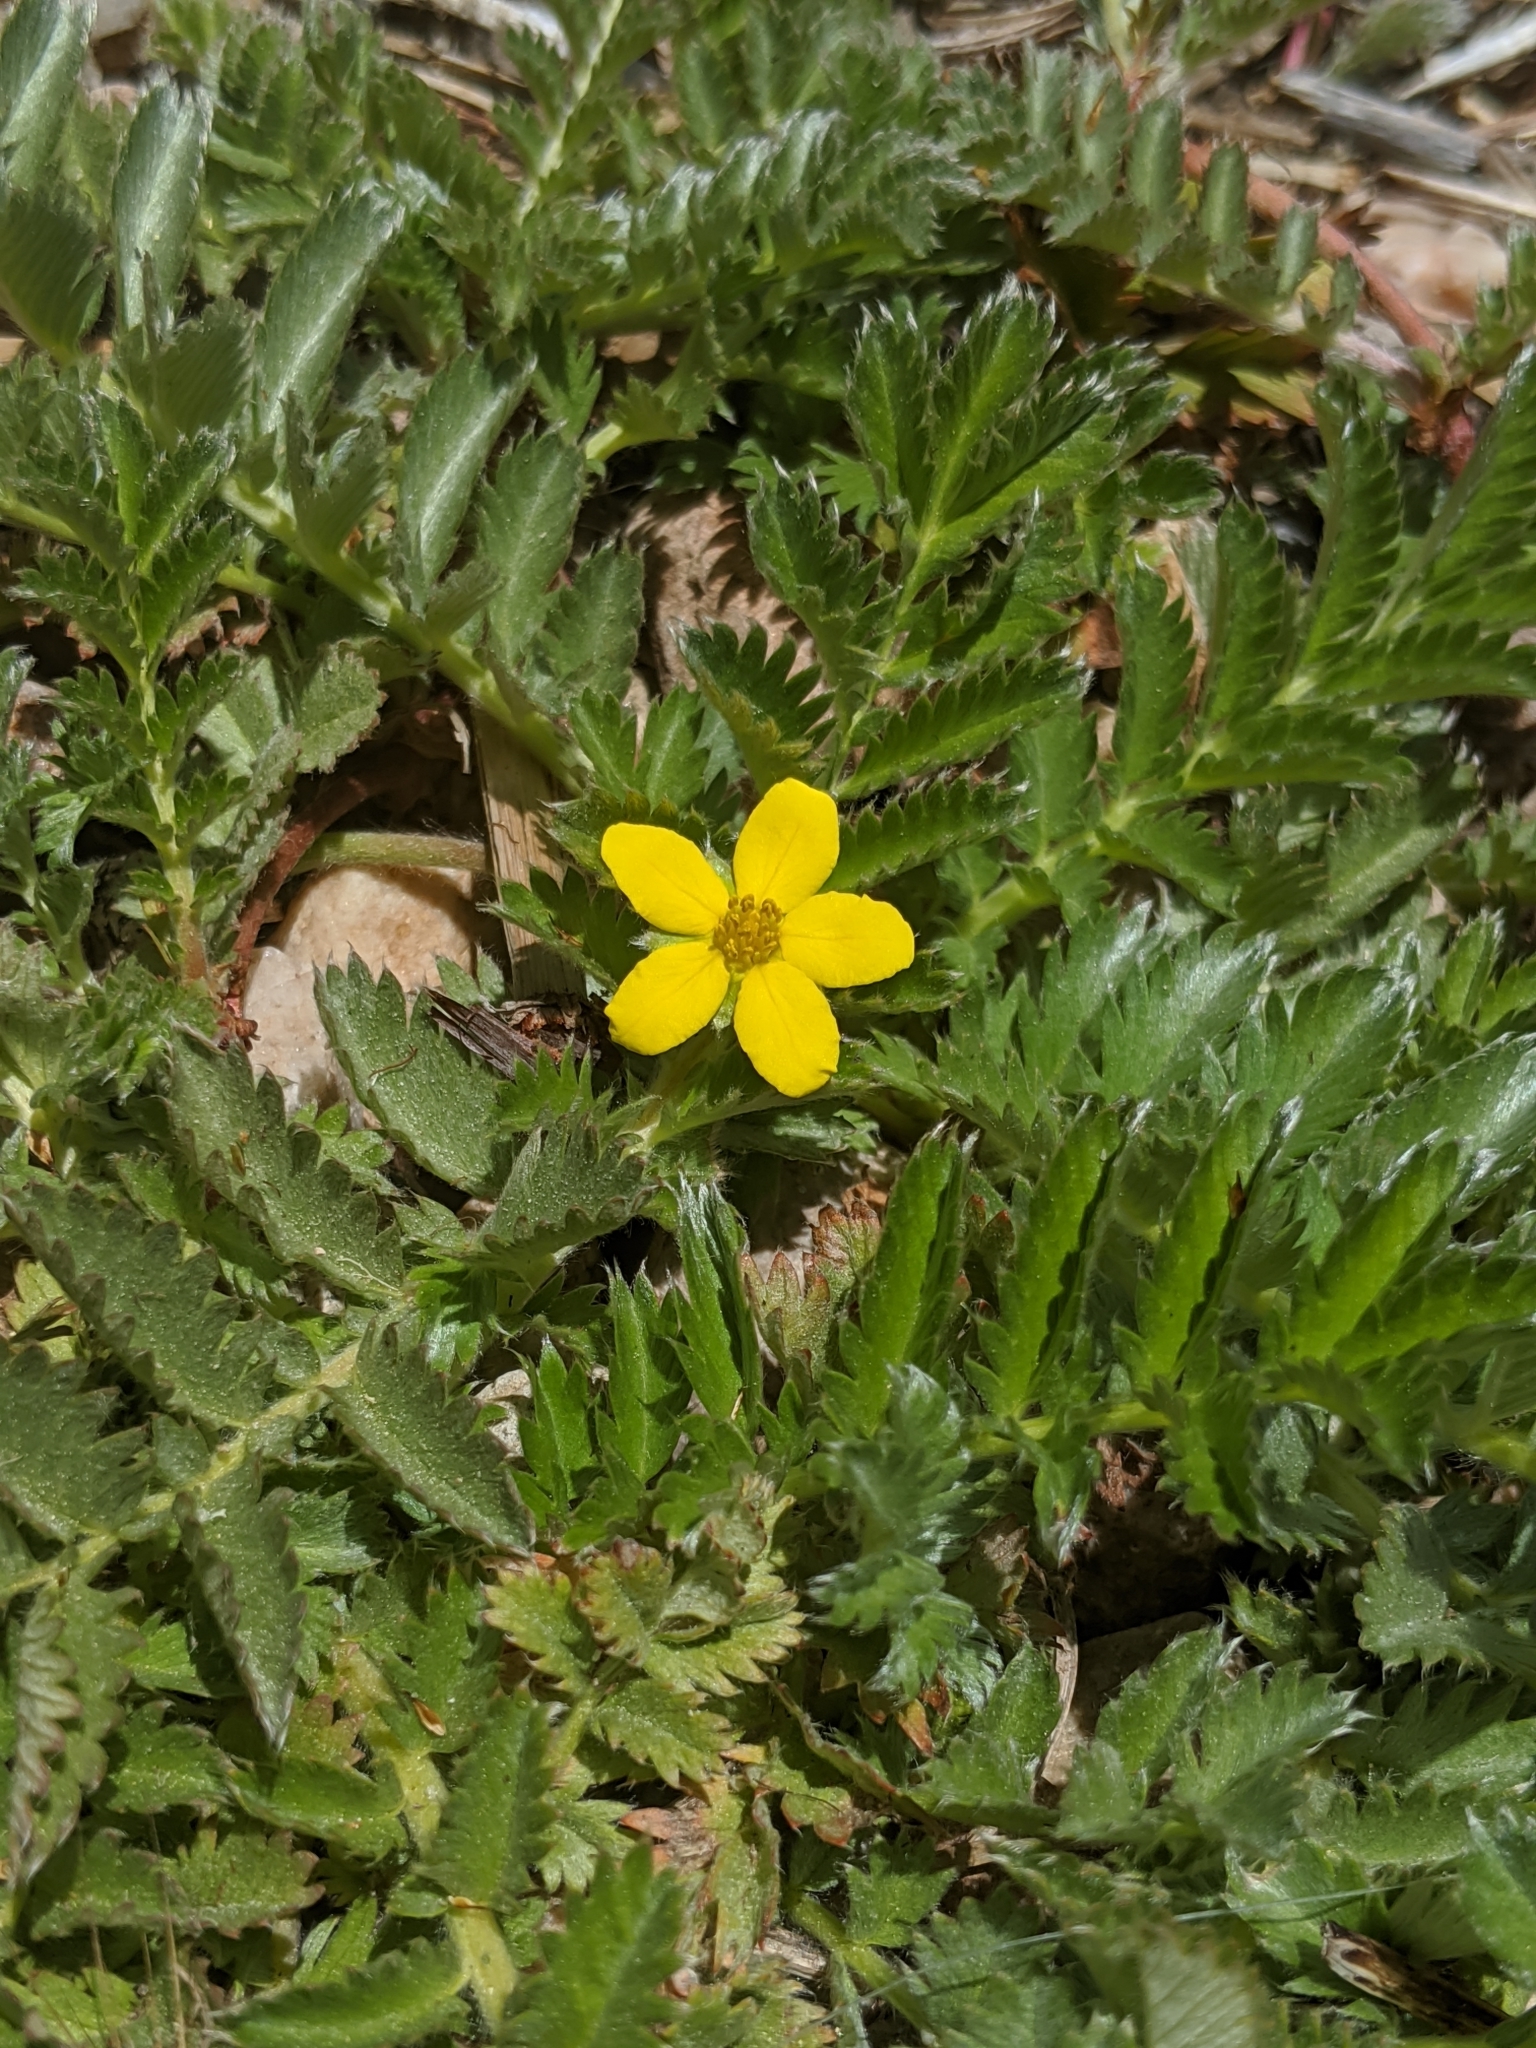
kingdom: Plantae
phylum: Tracheophyta
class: Magnoliopsida
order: Rosales
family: Rosaceae
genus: Argentina
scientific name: Argentina anserina
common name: Common silverweed
